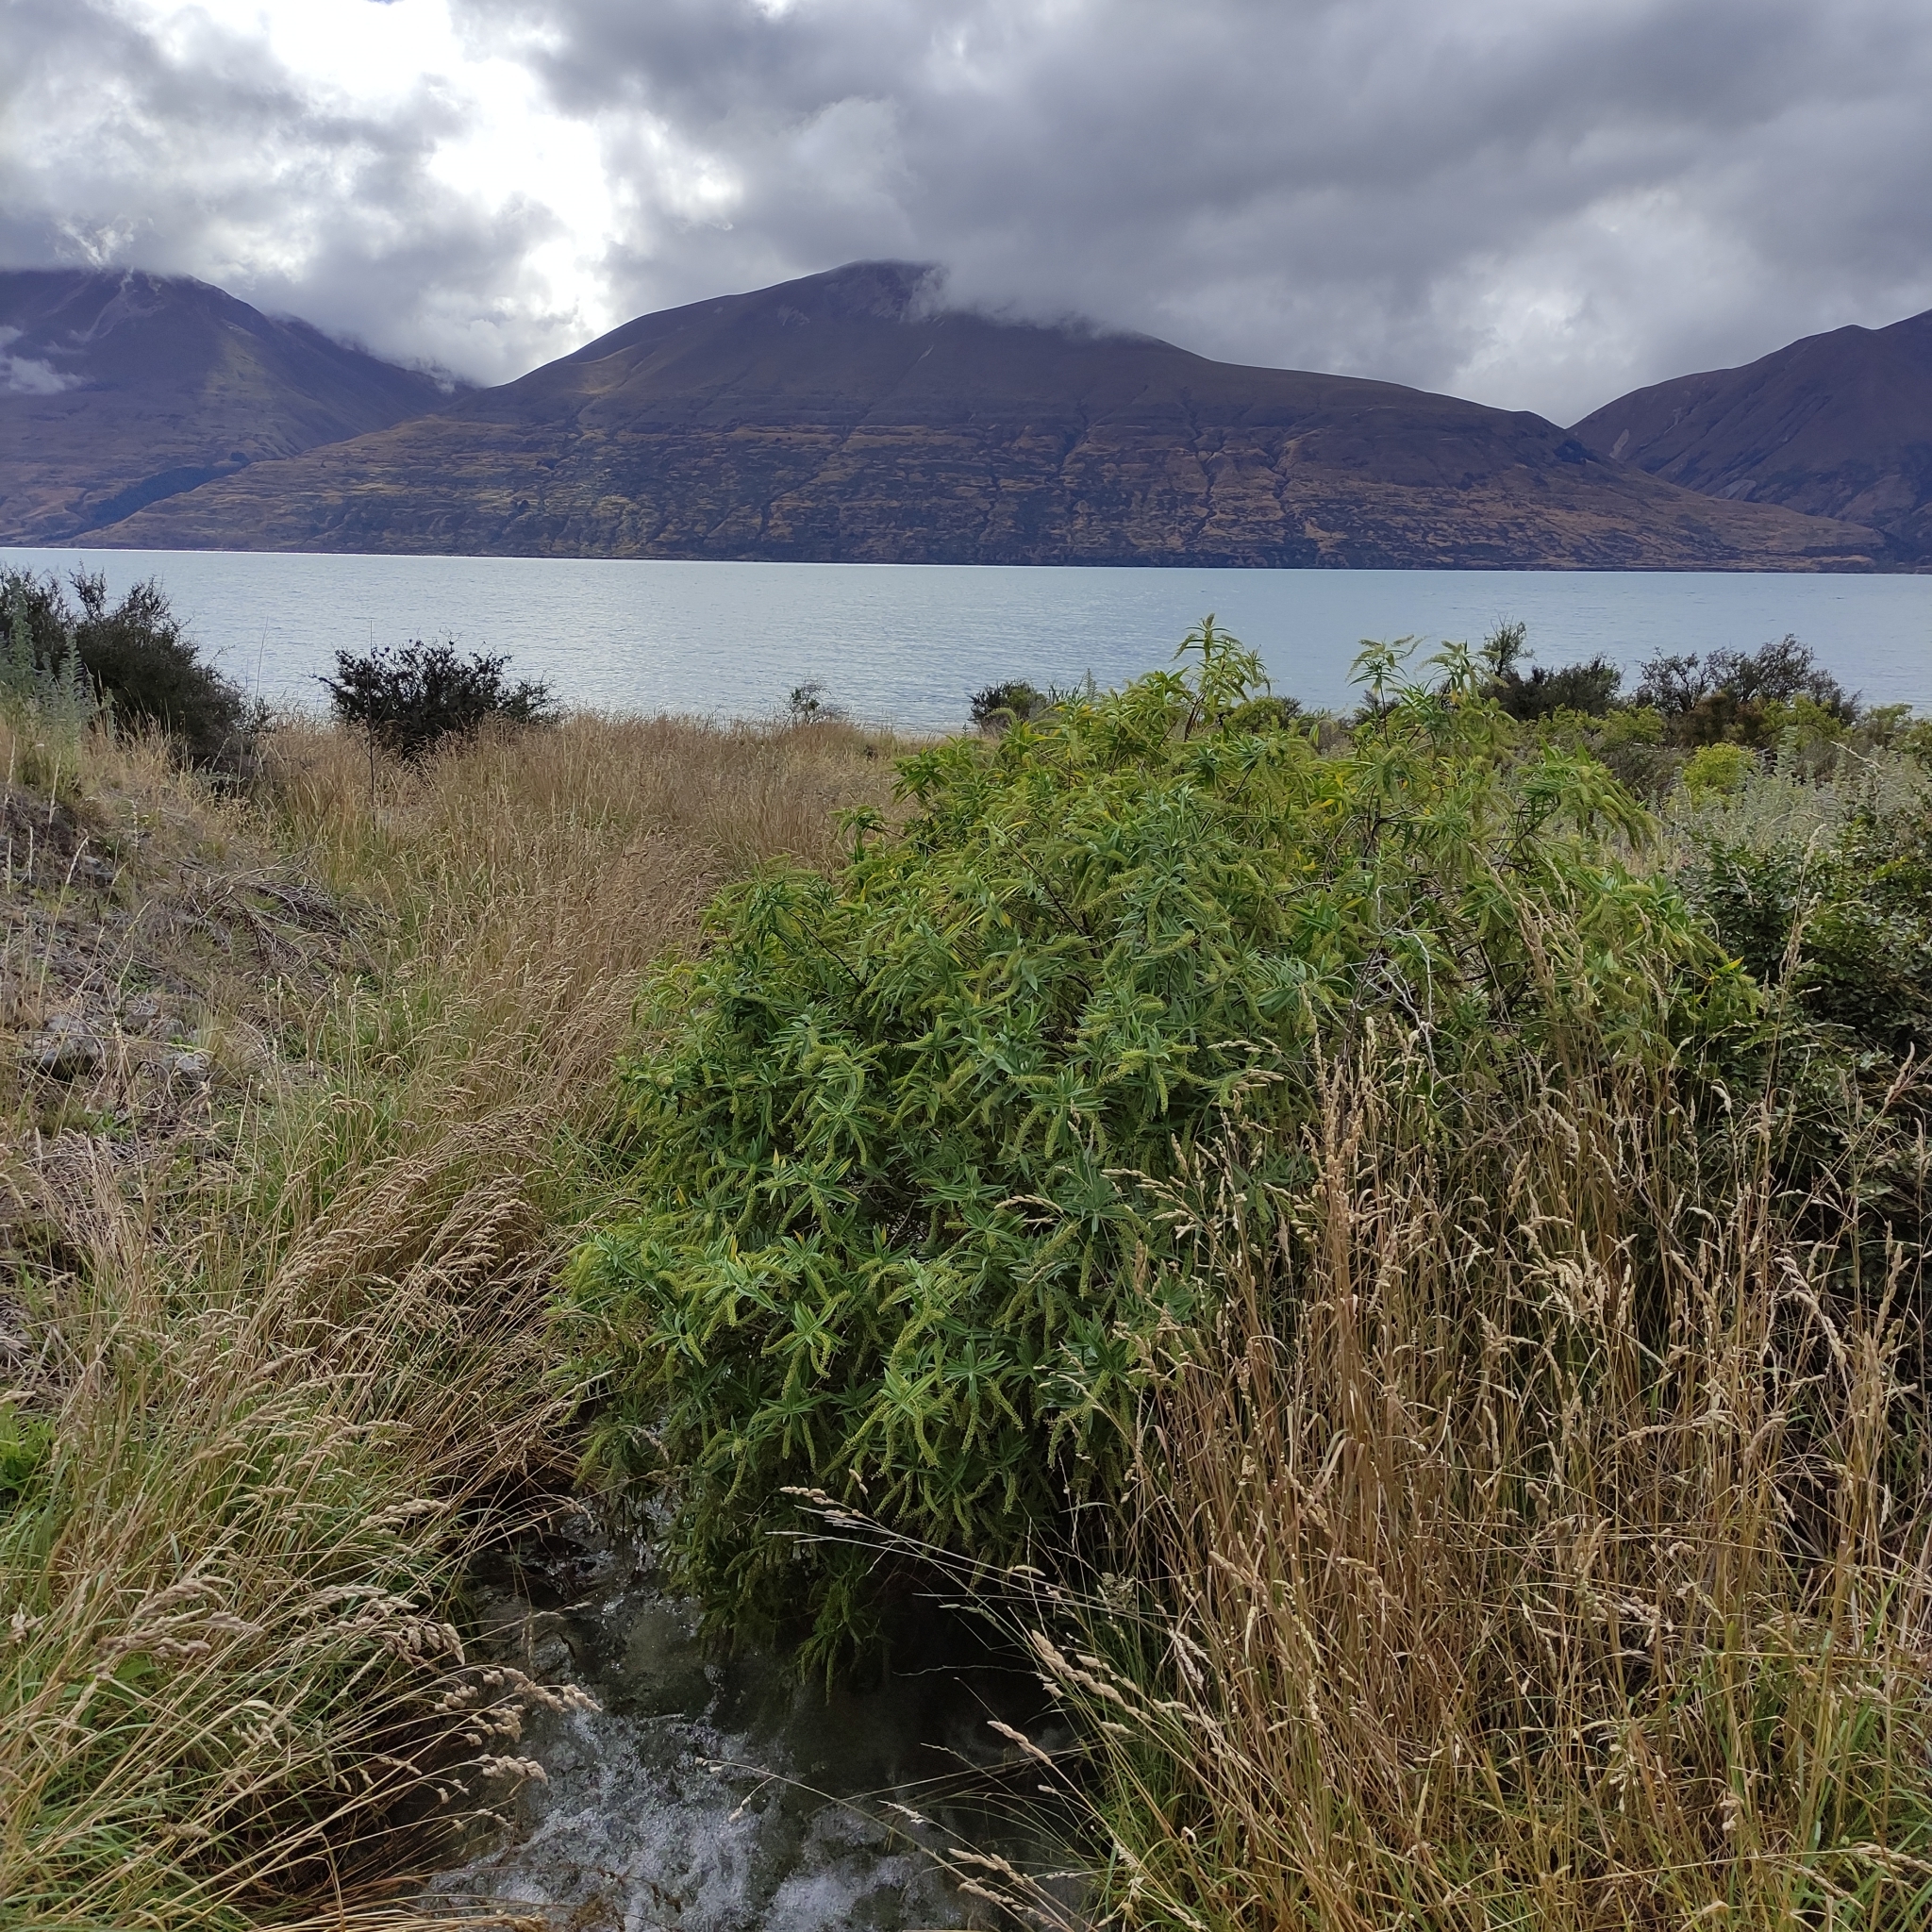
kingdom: Plantae
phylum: Tracheophyta
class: Magnoliopsida
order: Lamiales
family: Plantaginaceae
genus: Veronica
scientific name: Veronica salicifolia
